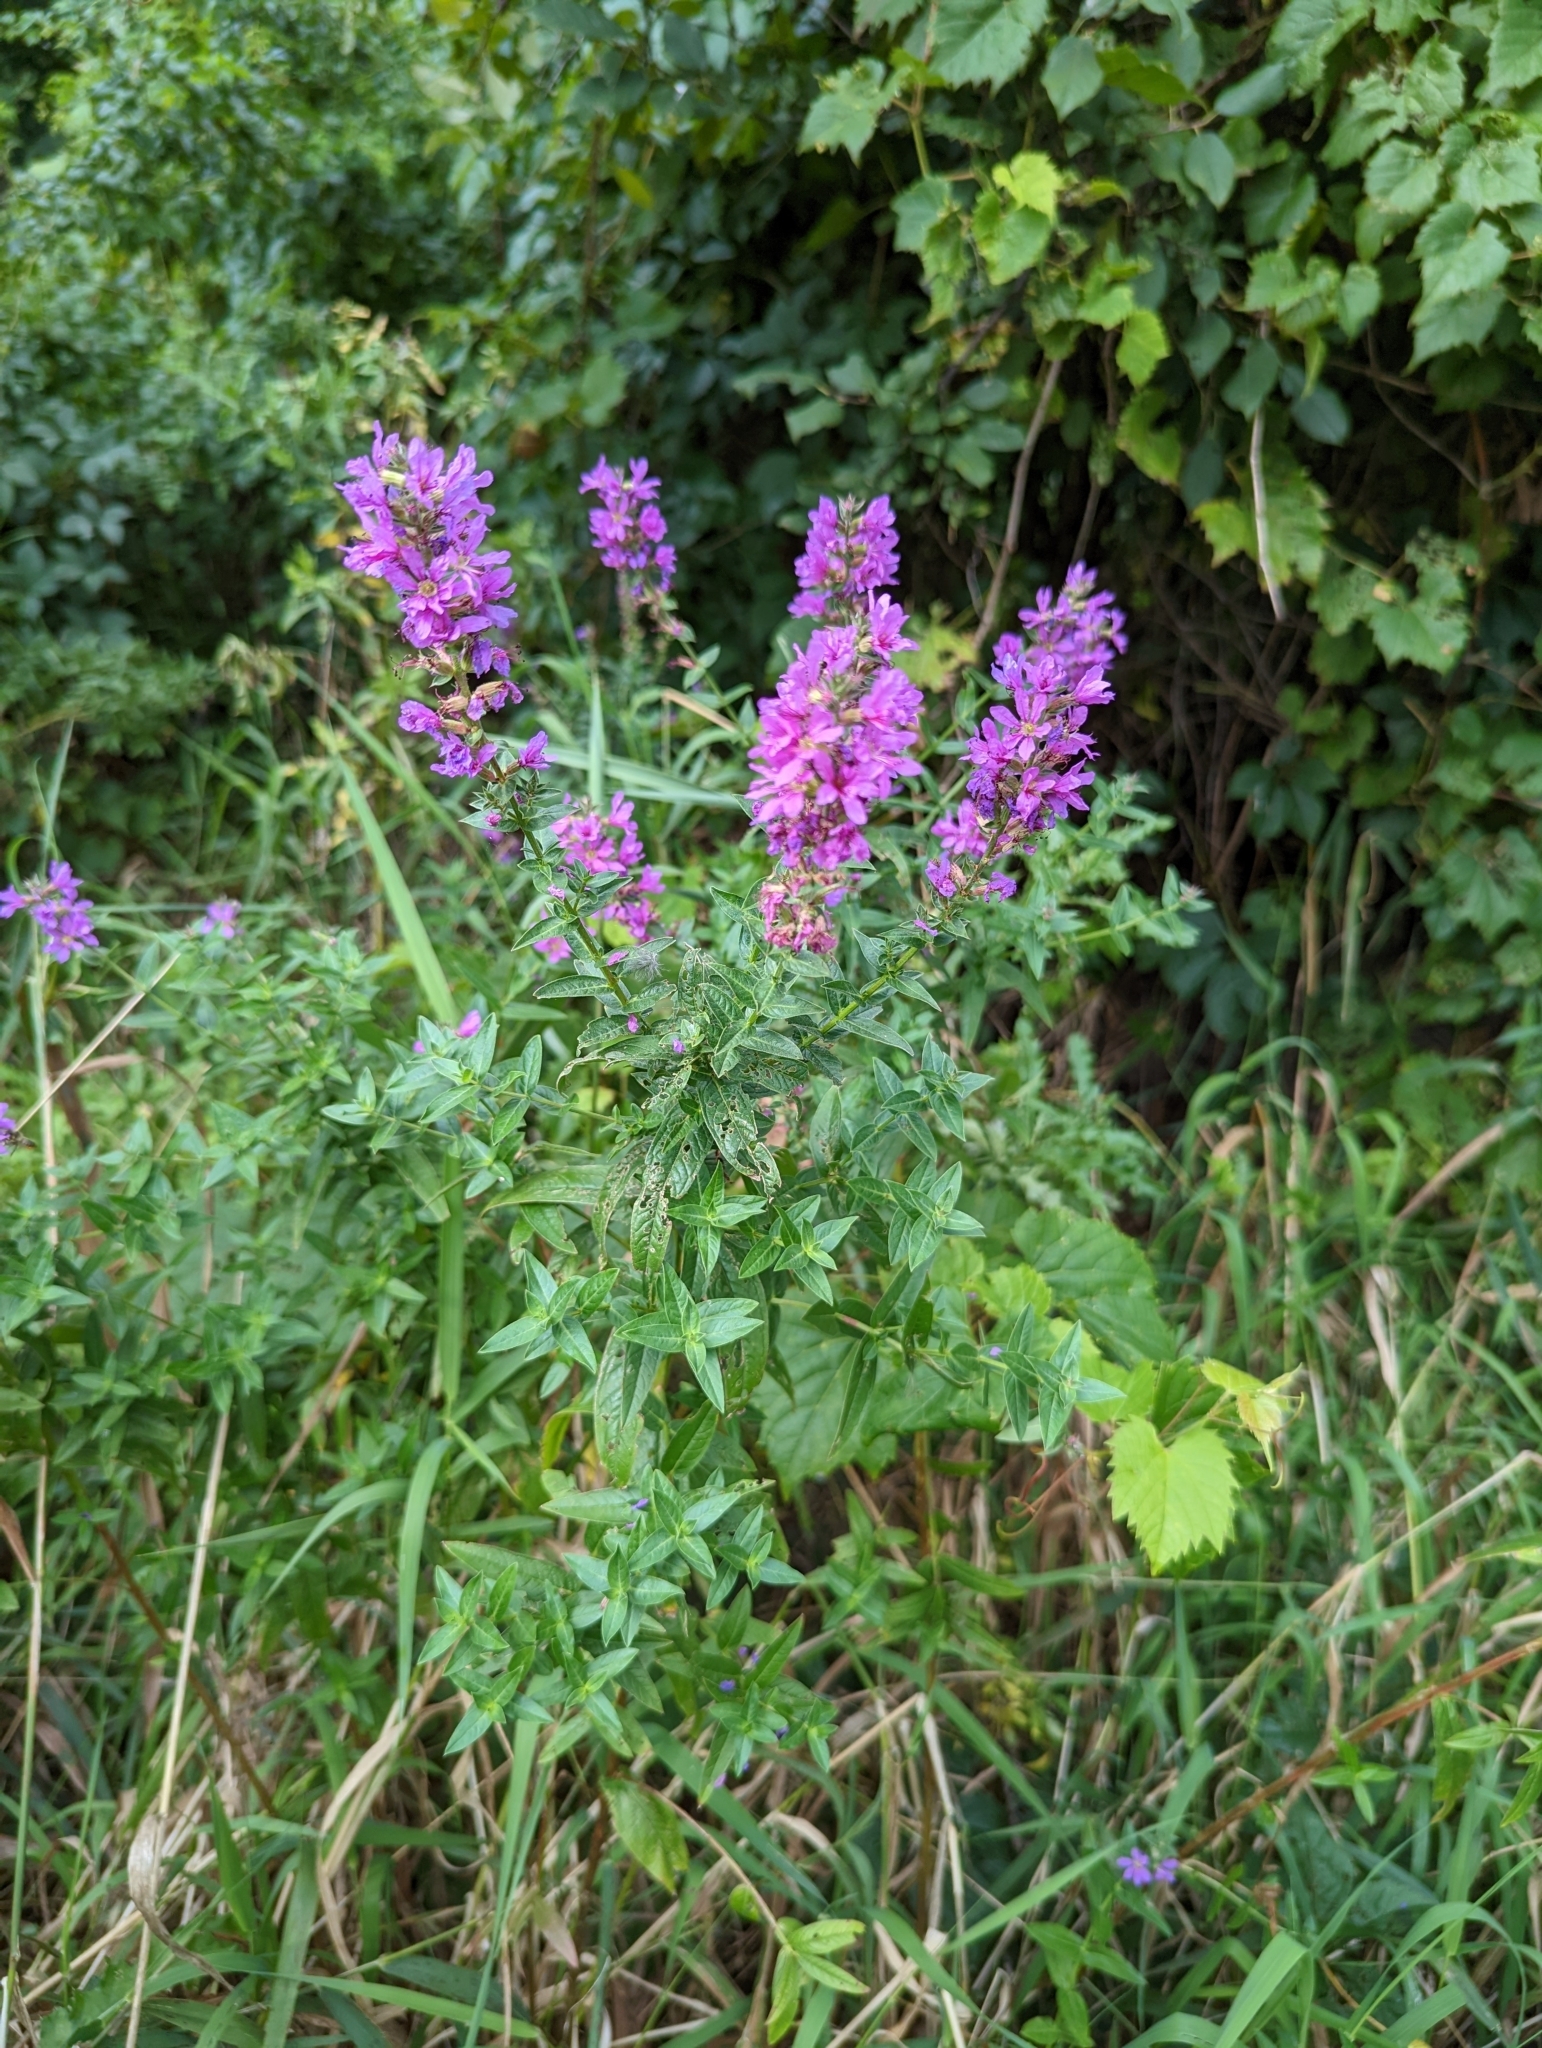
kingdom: Plantae
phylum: Tracheophyta
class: Magnoliopsida
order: Myrtales
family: Lythraceae
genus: Lythrum
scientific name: Lythrum salicaria
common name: Purple loosestrife
